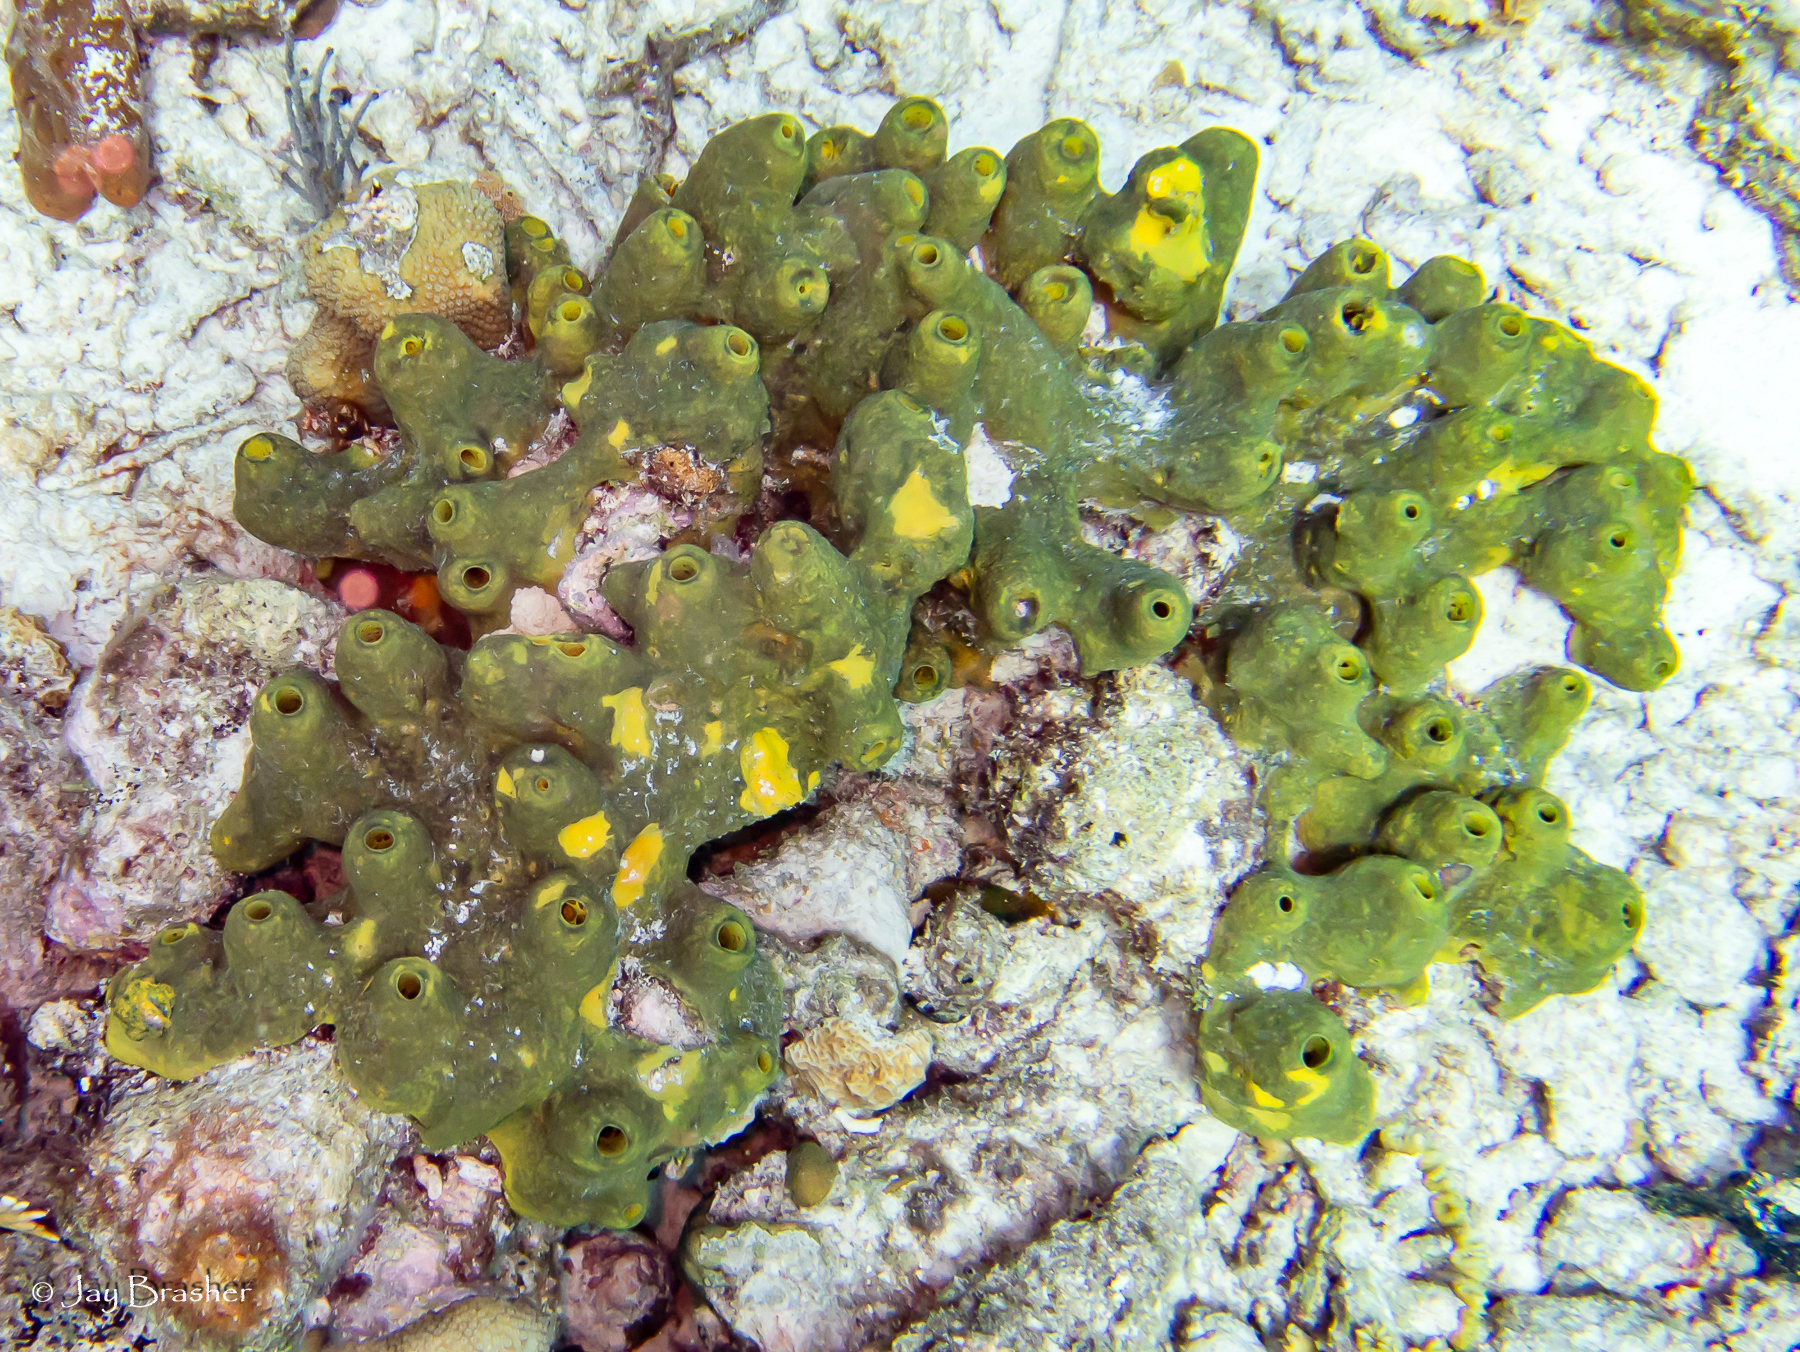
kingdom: Animalia
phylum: Porifera
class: Demospongiae
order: Verongiida
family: Aplysinidae
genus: Verongula
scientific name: Verongula reiswigi
